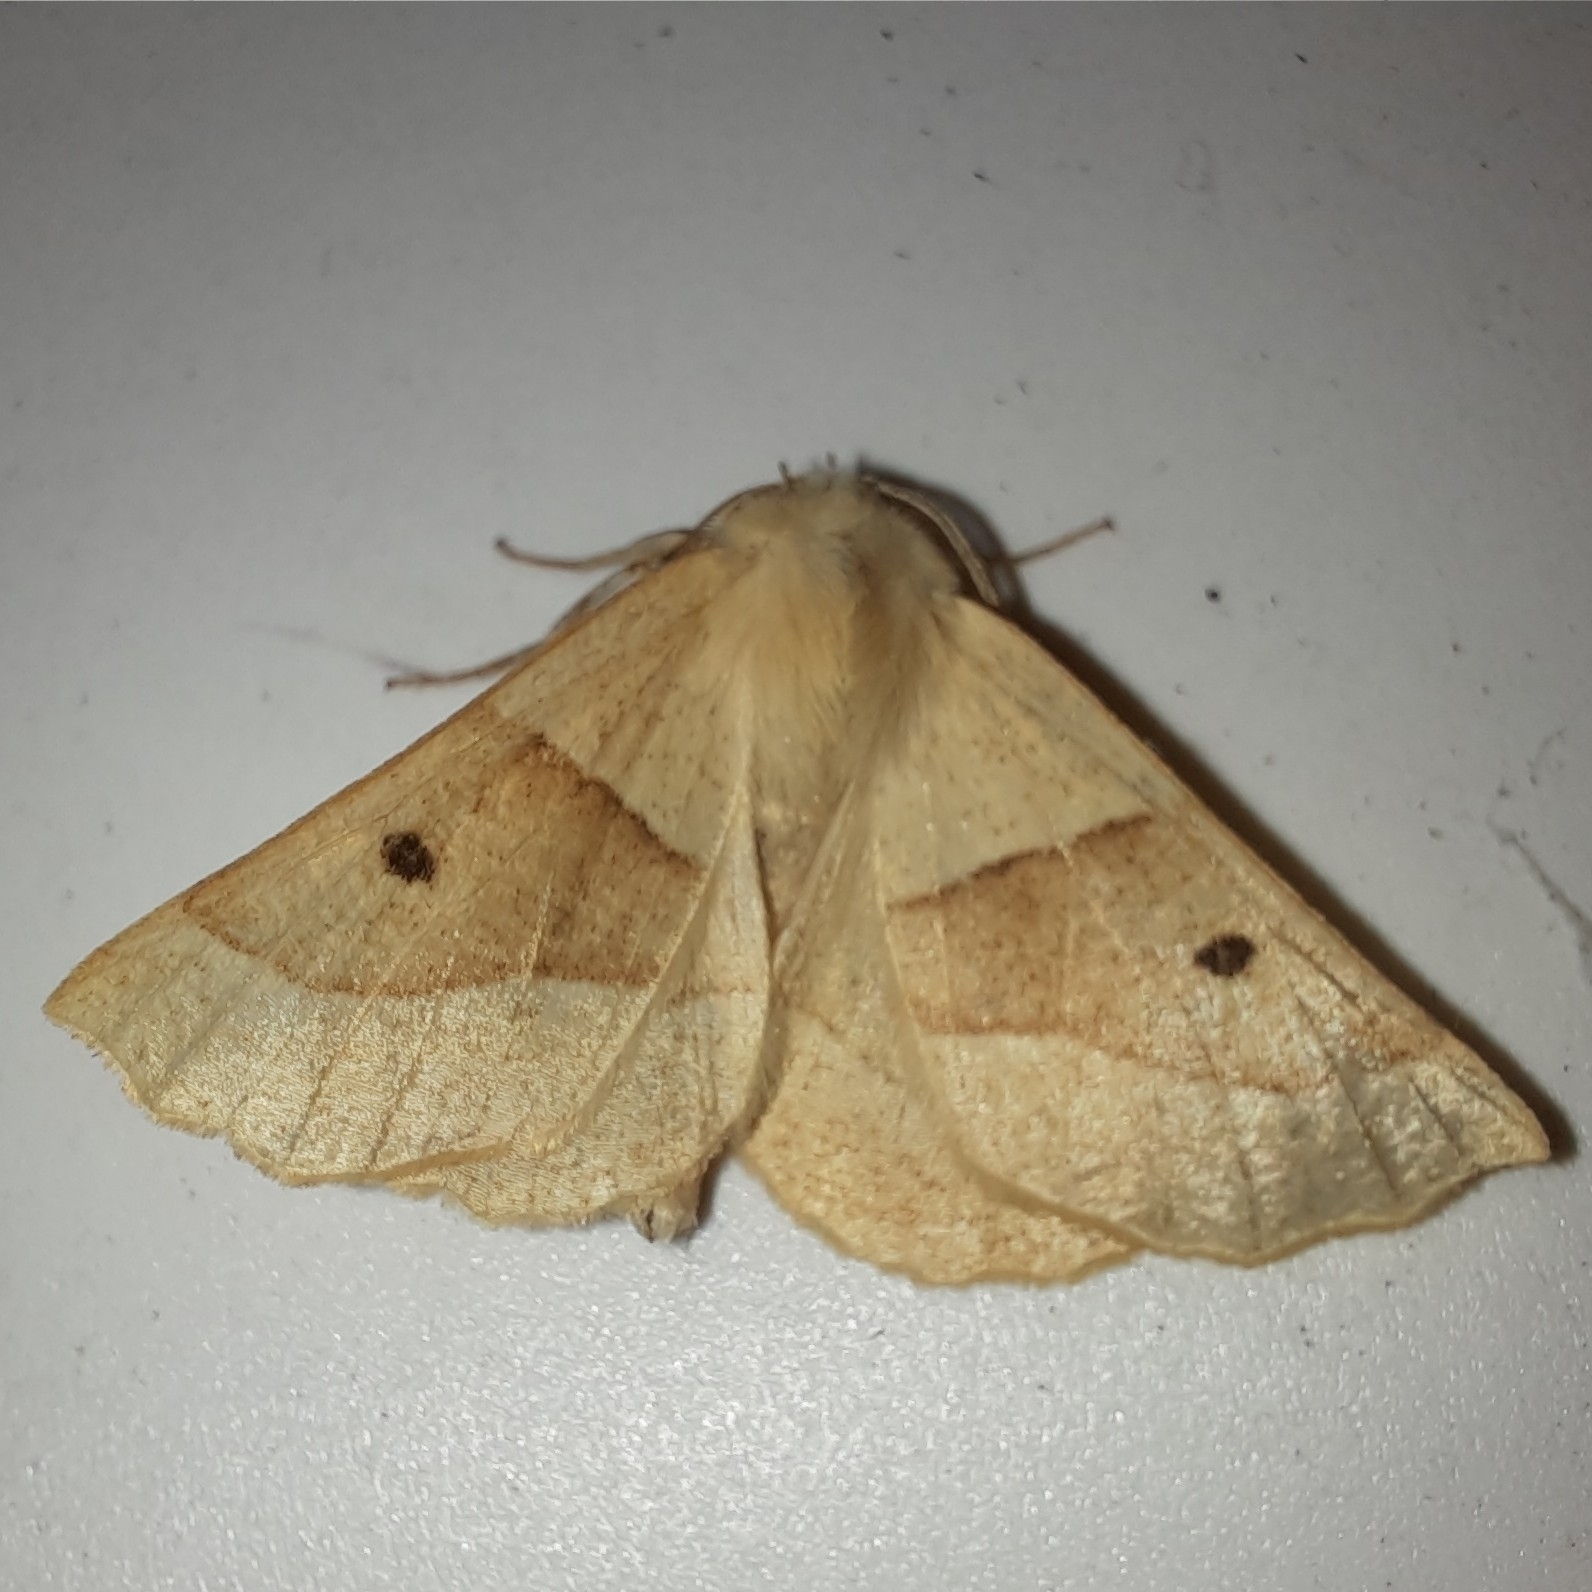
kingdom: Animalia
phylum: Arthropoda
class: Insecta
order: Lepidoptera
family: Geometridae
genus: Crocallis
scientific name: Crocallis elinguaria
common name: Scalloped oak
